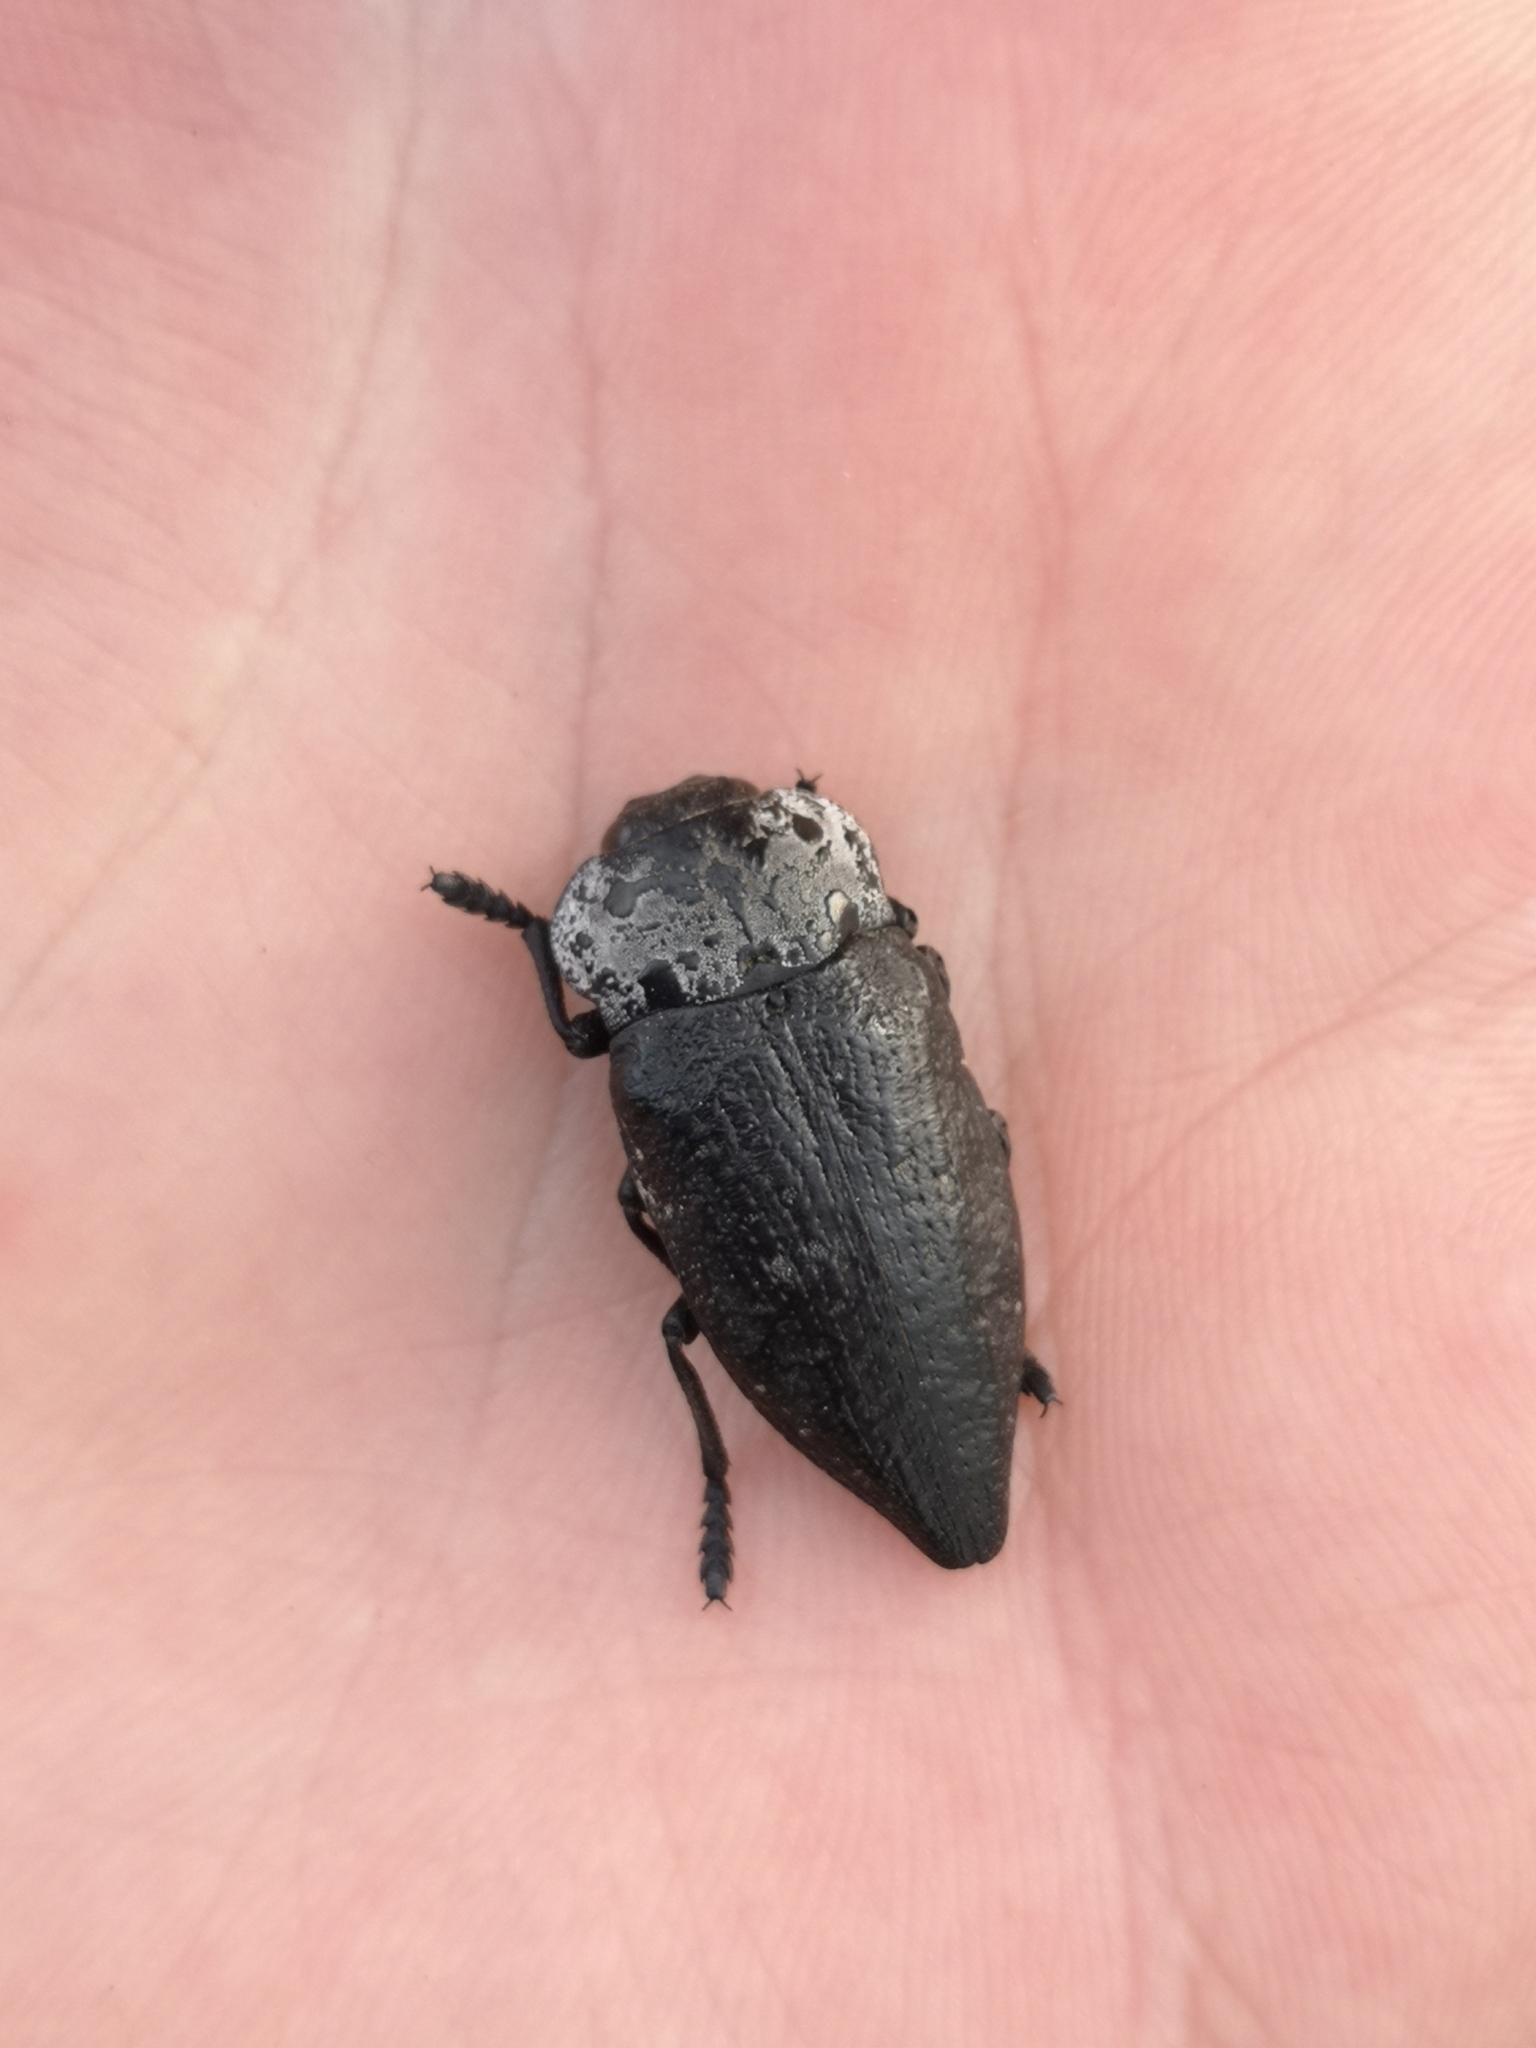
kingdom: Animalia
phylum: Arthropoda
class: Insecta
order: Coleoptera
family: Buprestidae
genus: Capnodis
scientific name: Capnodis tenebrionis
